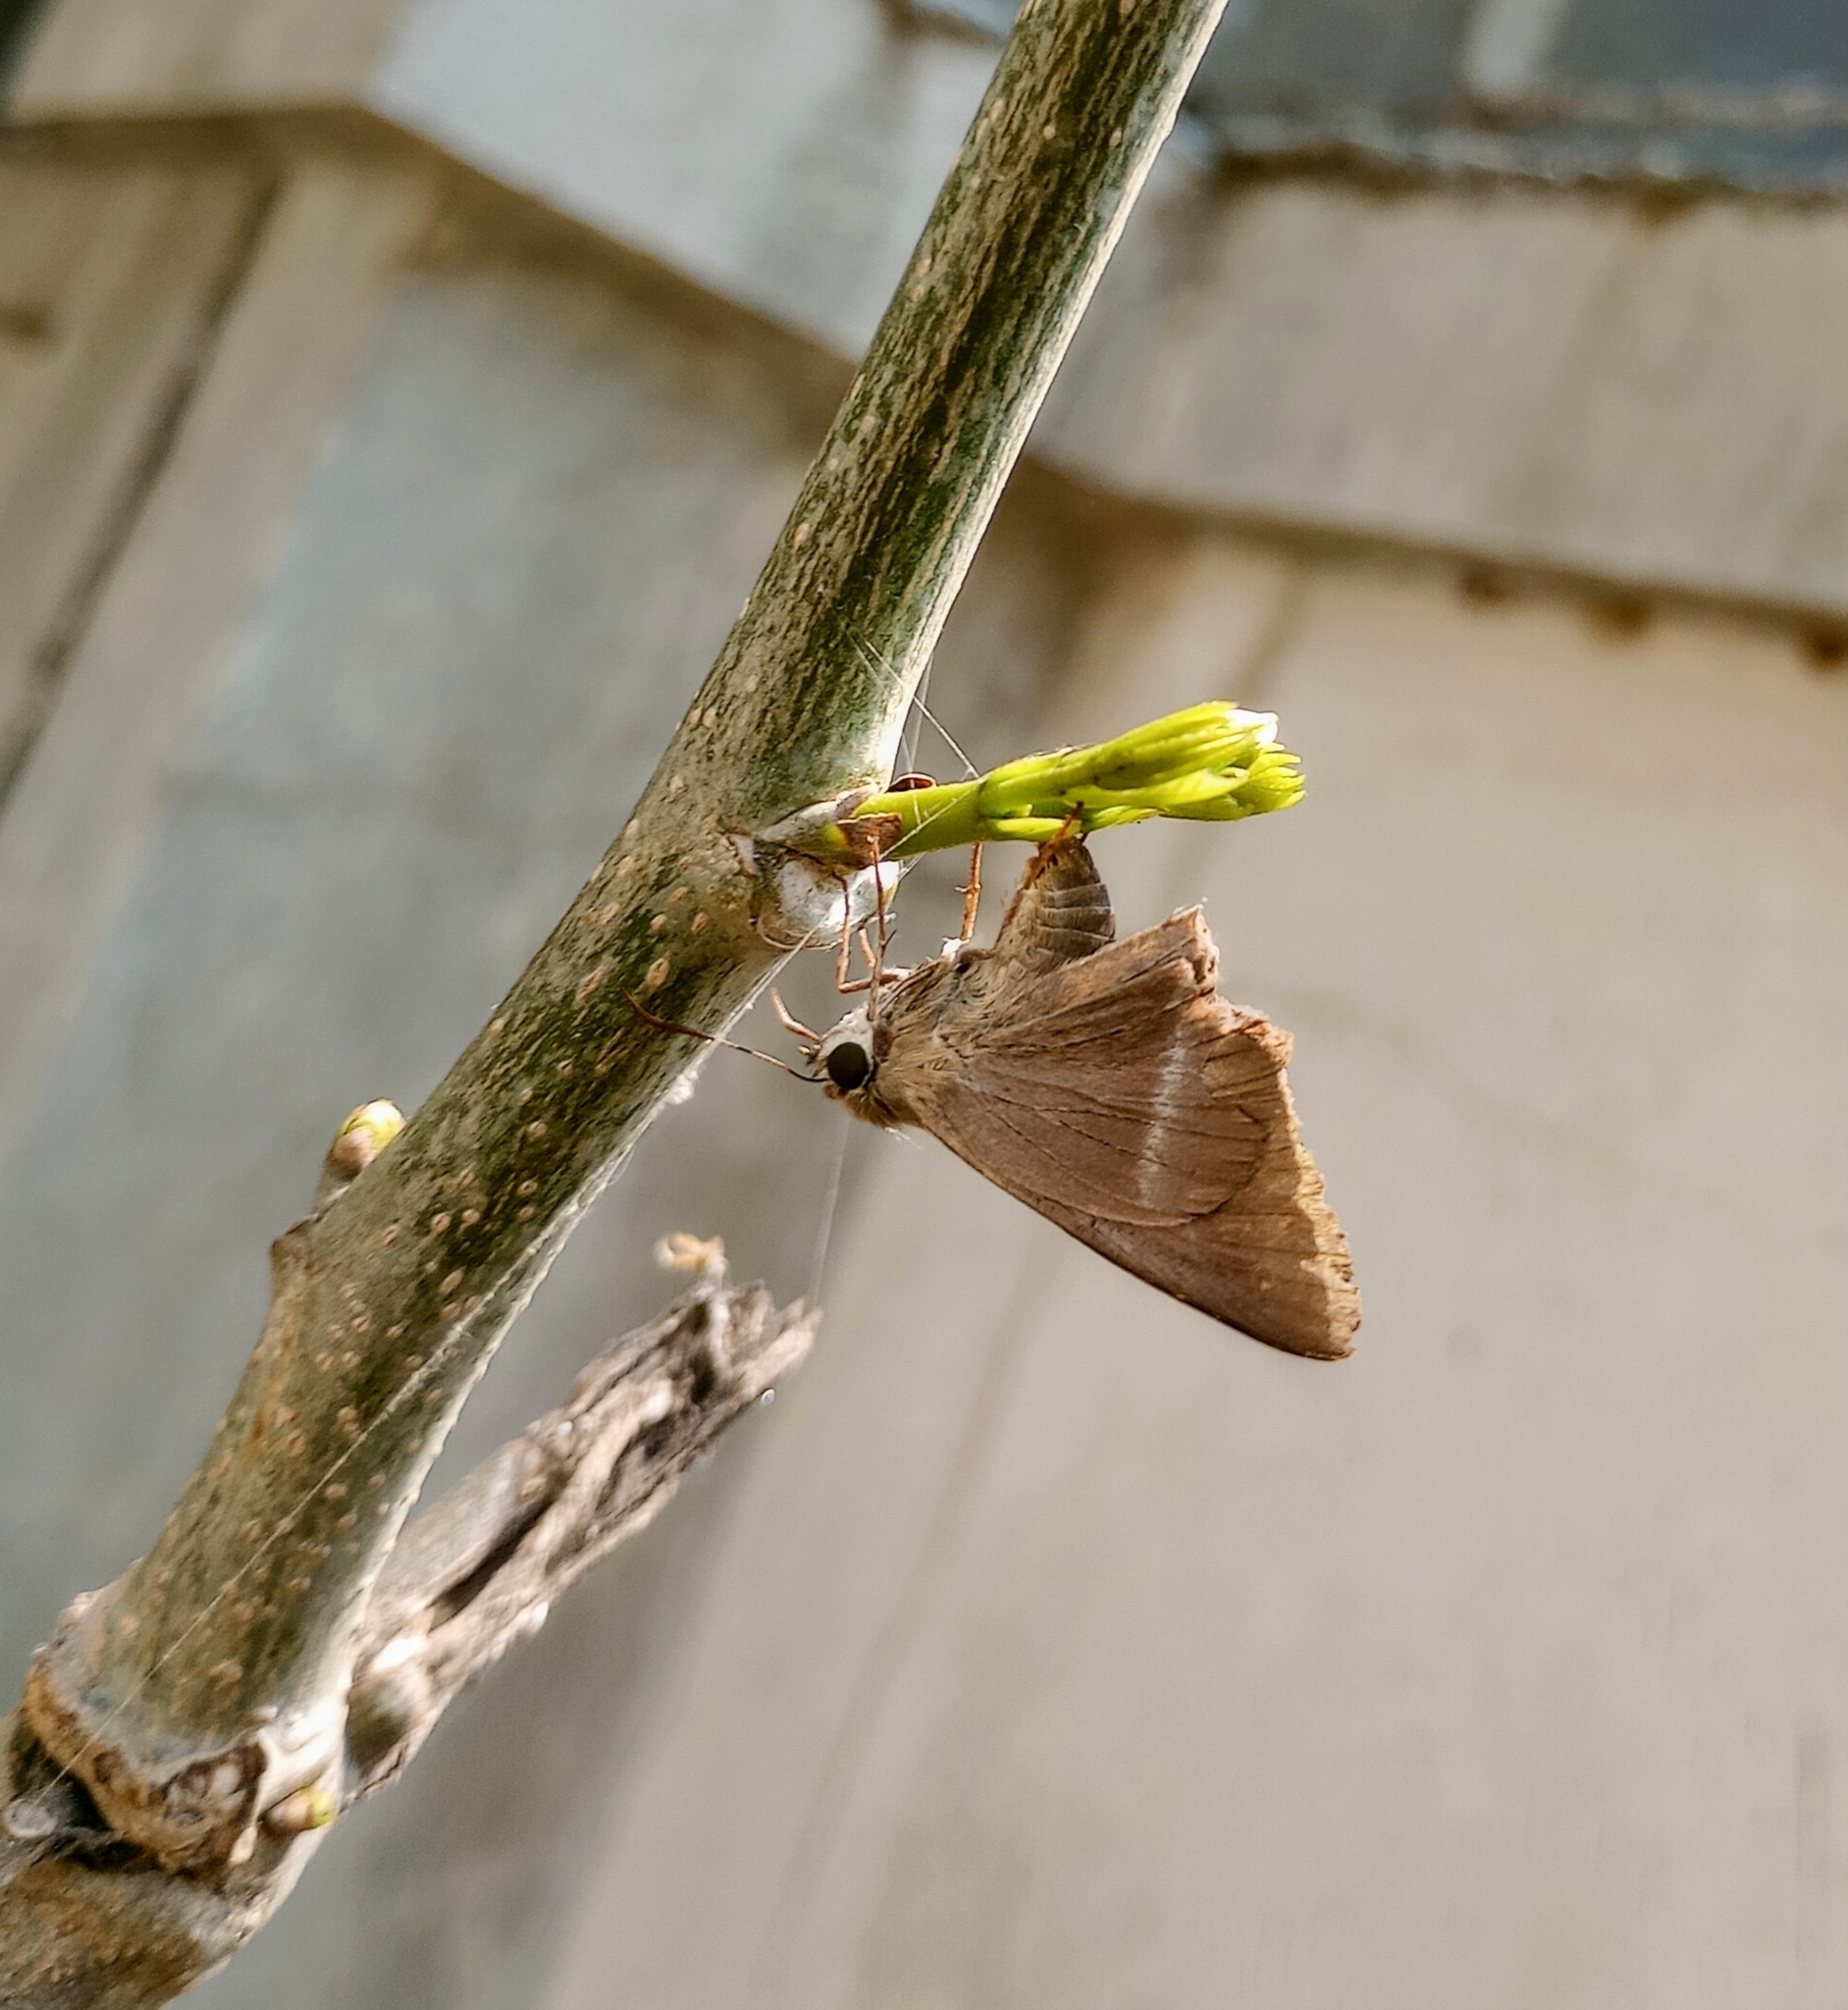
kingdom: Animalia
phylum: Arthropoda
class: Insecta
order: Lepidoptera
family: Hesperiidae
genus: Hasora
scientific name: Hasora chromus
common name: Common banded awl
